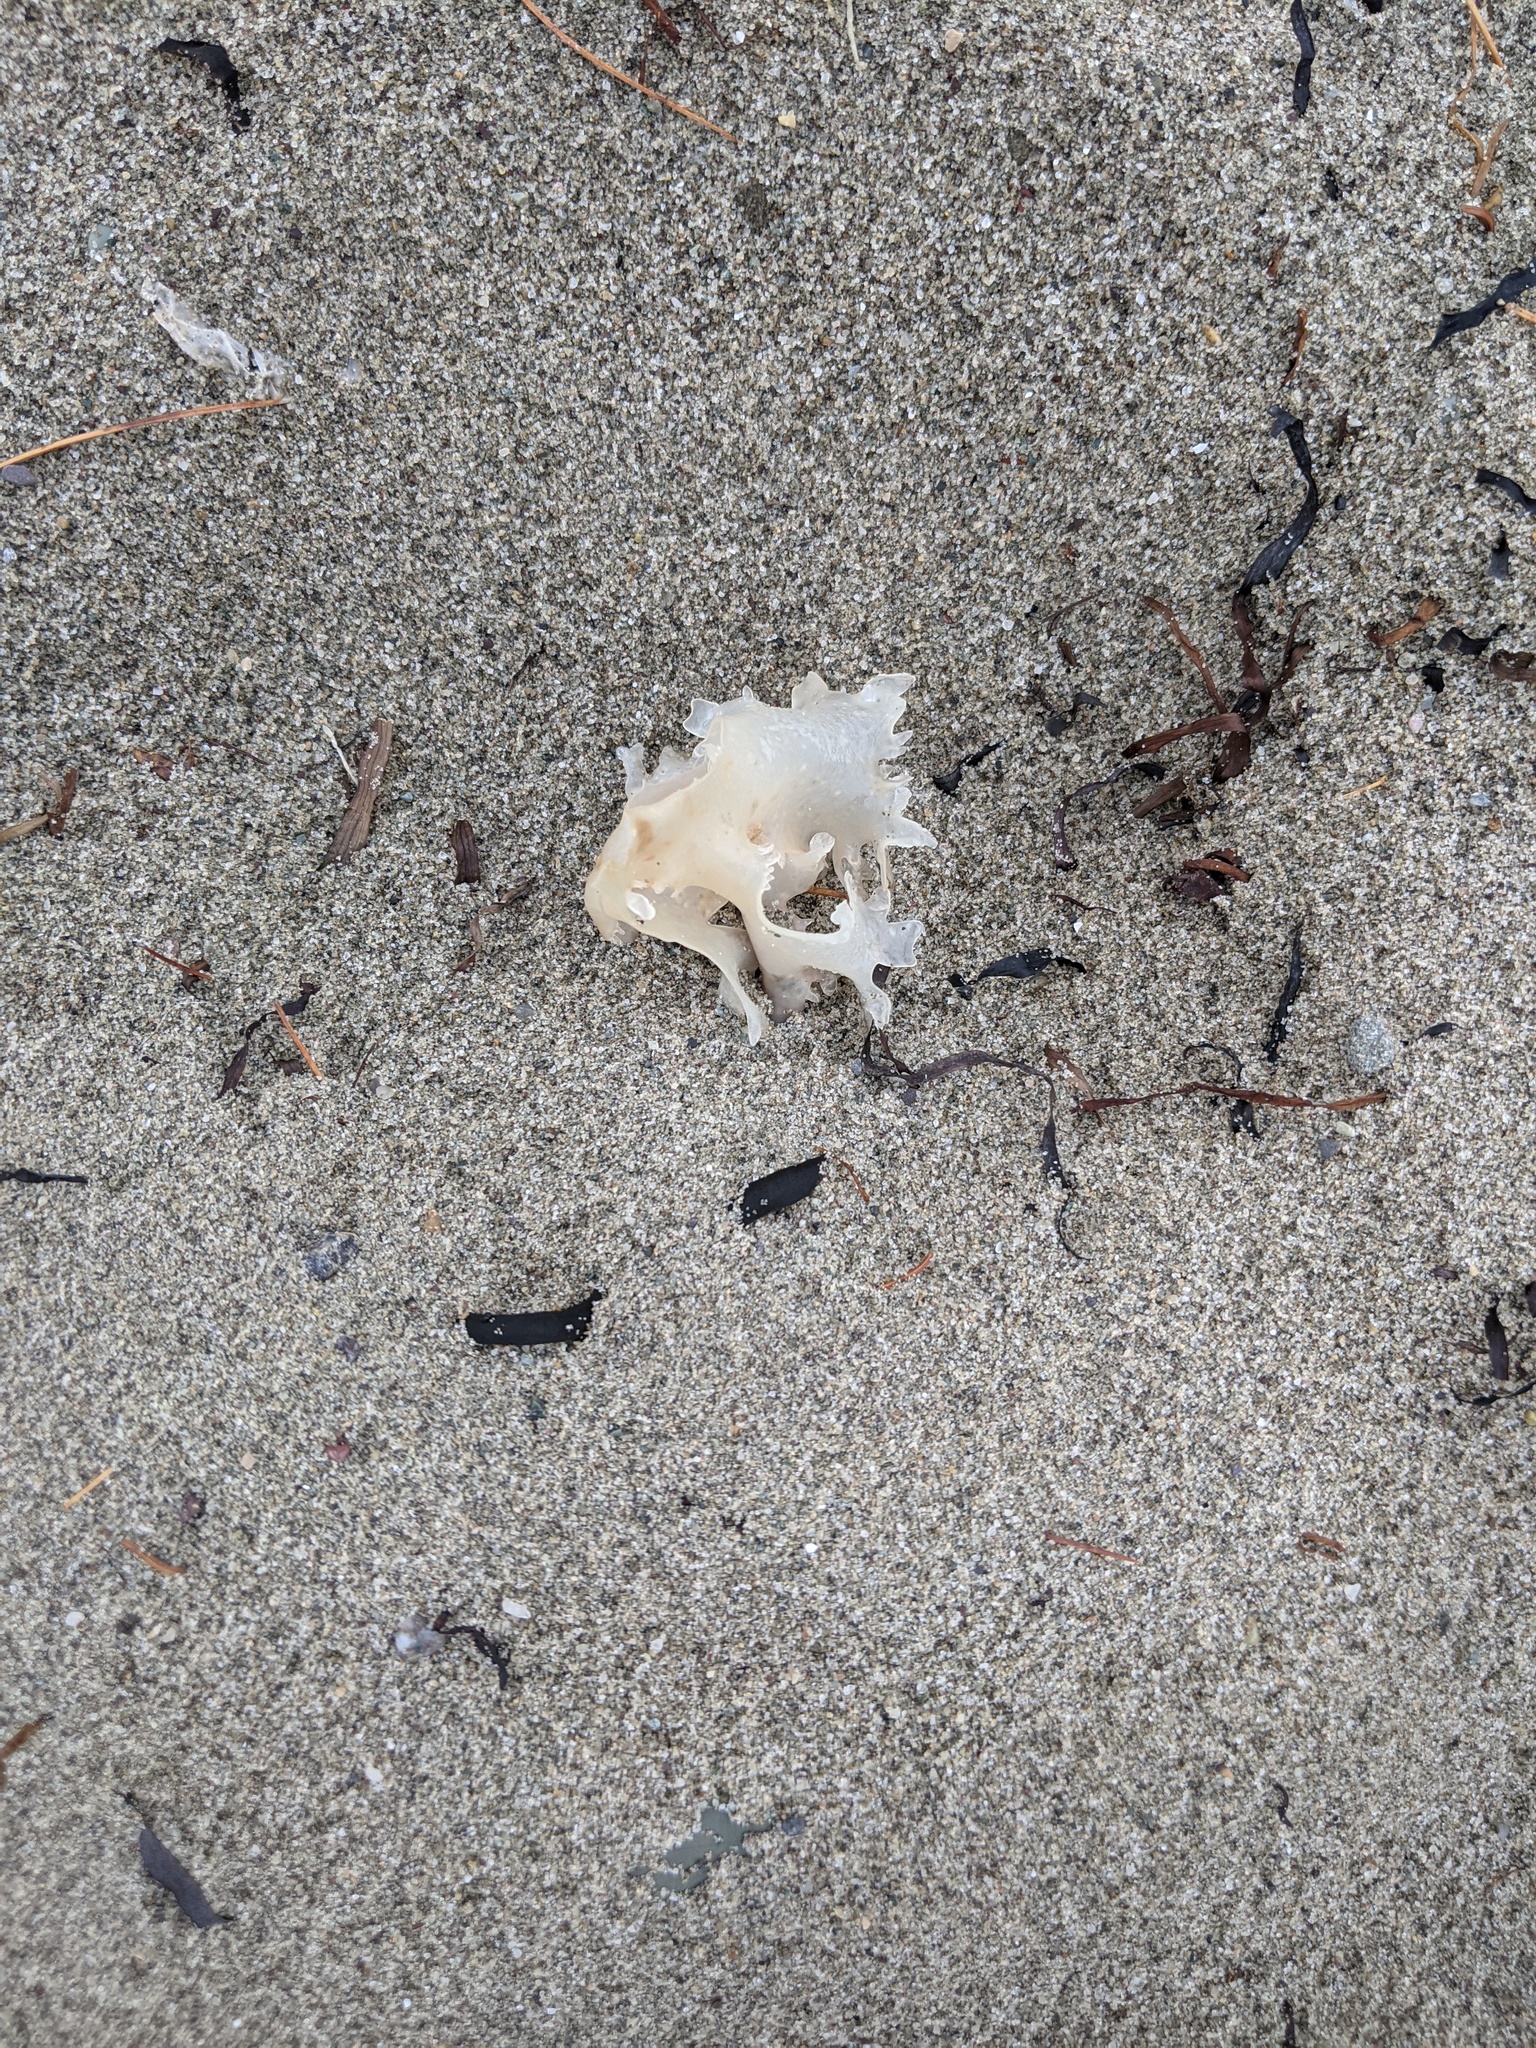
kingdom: Plantae
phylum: Rhodophyta
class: Florideophyceae
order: Gigartinales
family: Gigartinaceae
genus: Chondrus
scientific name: Chondrus crispus
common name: Carrageen
